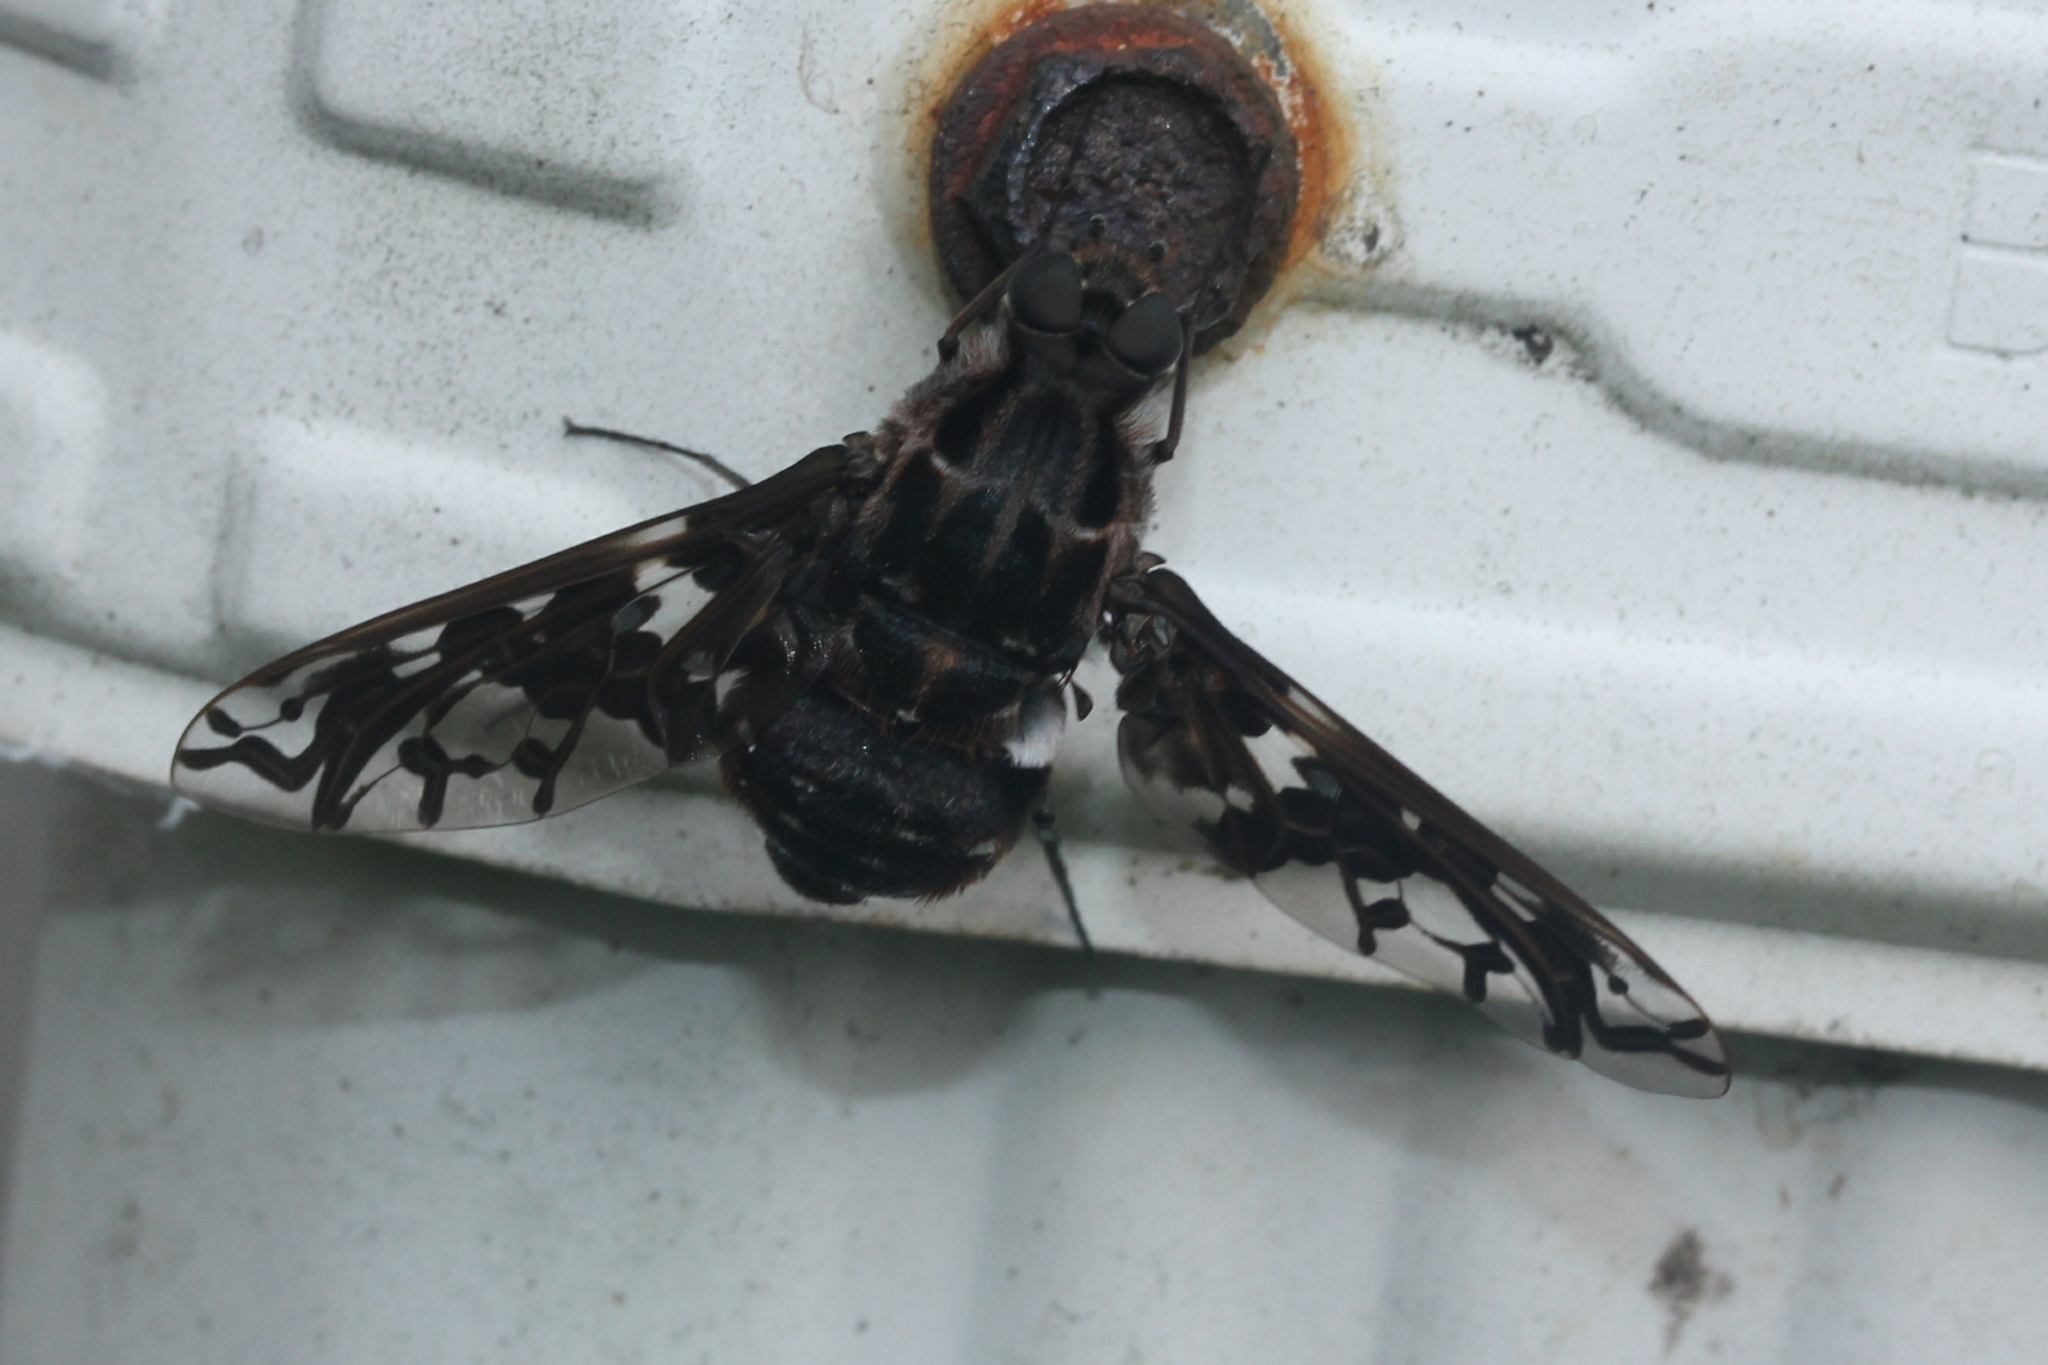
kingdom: Animalia
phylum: Arthropoda
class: Insecta
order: Diptera
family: Bombyliidae
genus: Xenox
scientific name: Xenox tigrinus
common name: Tiger bee fly
